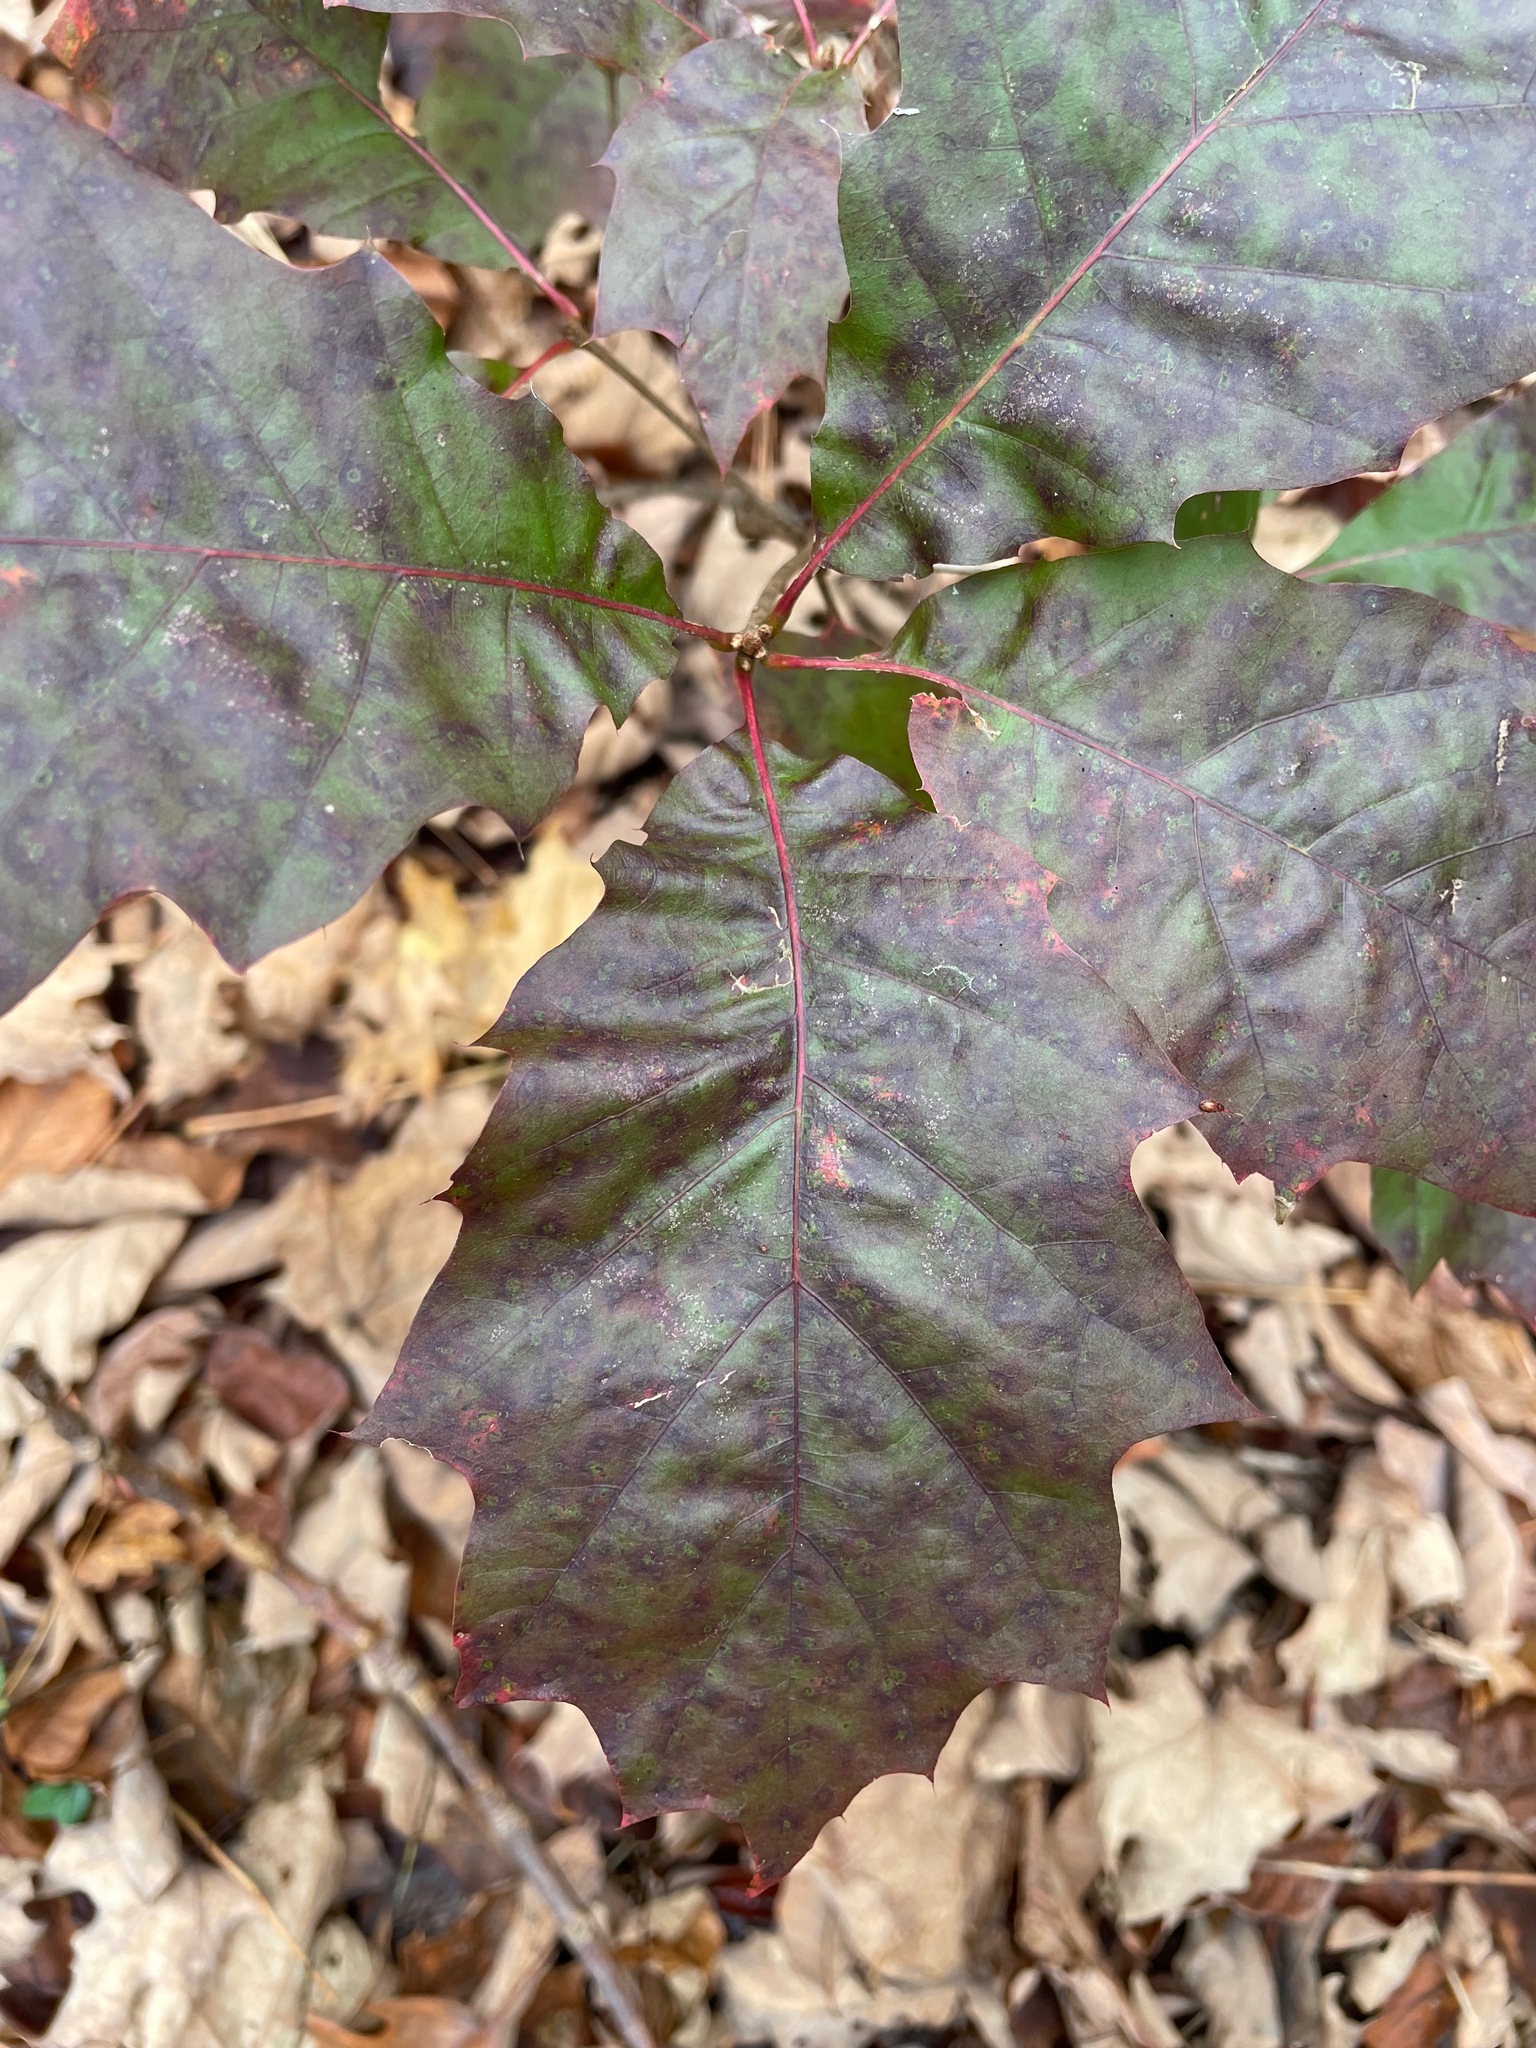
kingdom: Plantae
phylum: Tracheophyta
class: Magnoliopsida
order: Fagales
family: Fagaceae
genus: Quercus
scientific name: Quercus rubra
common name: Red oak
